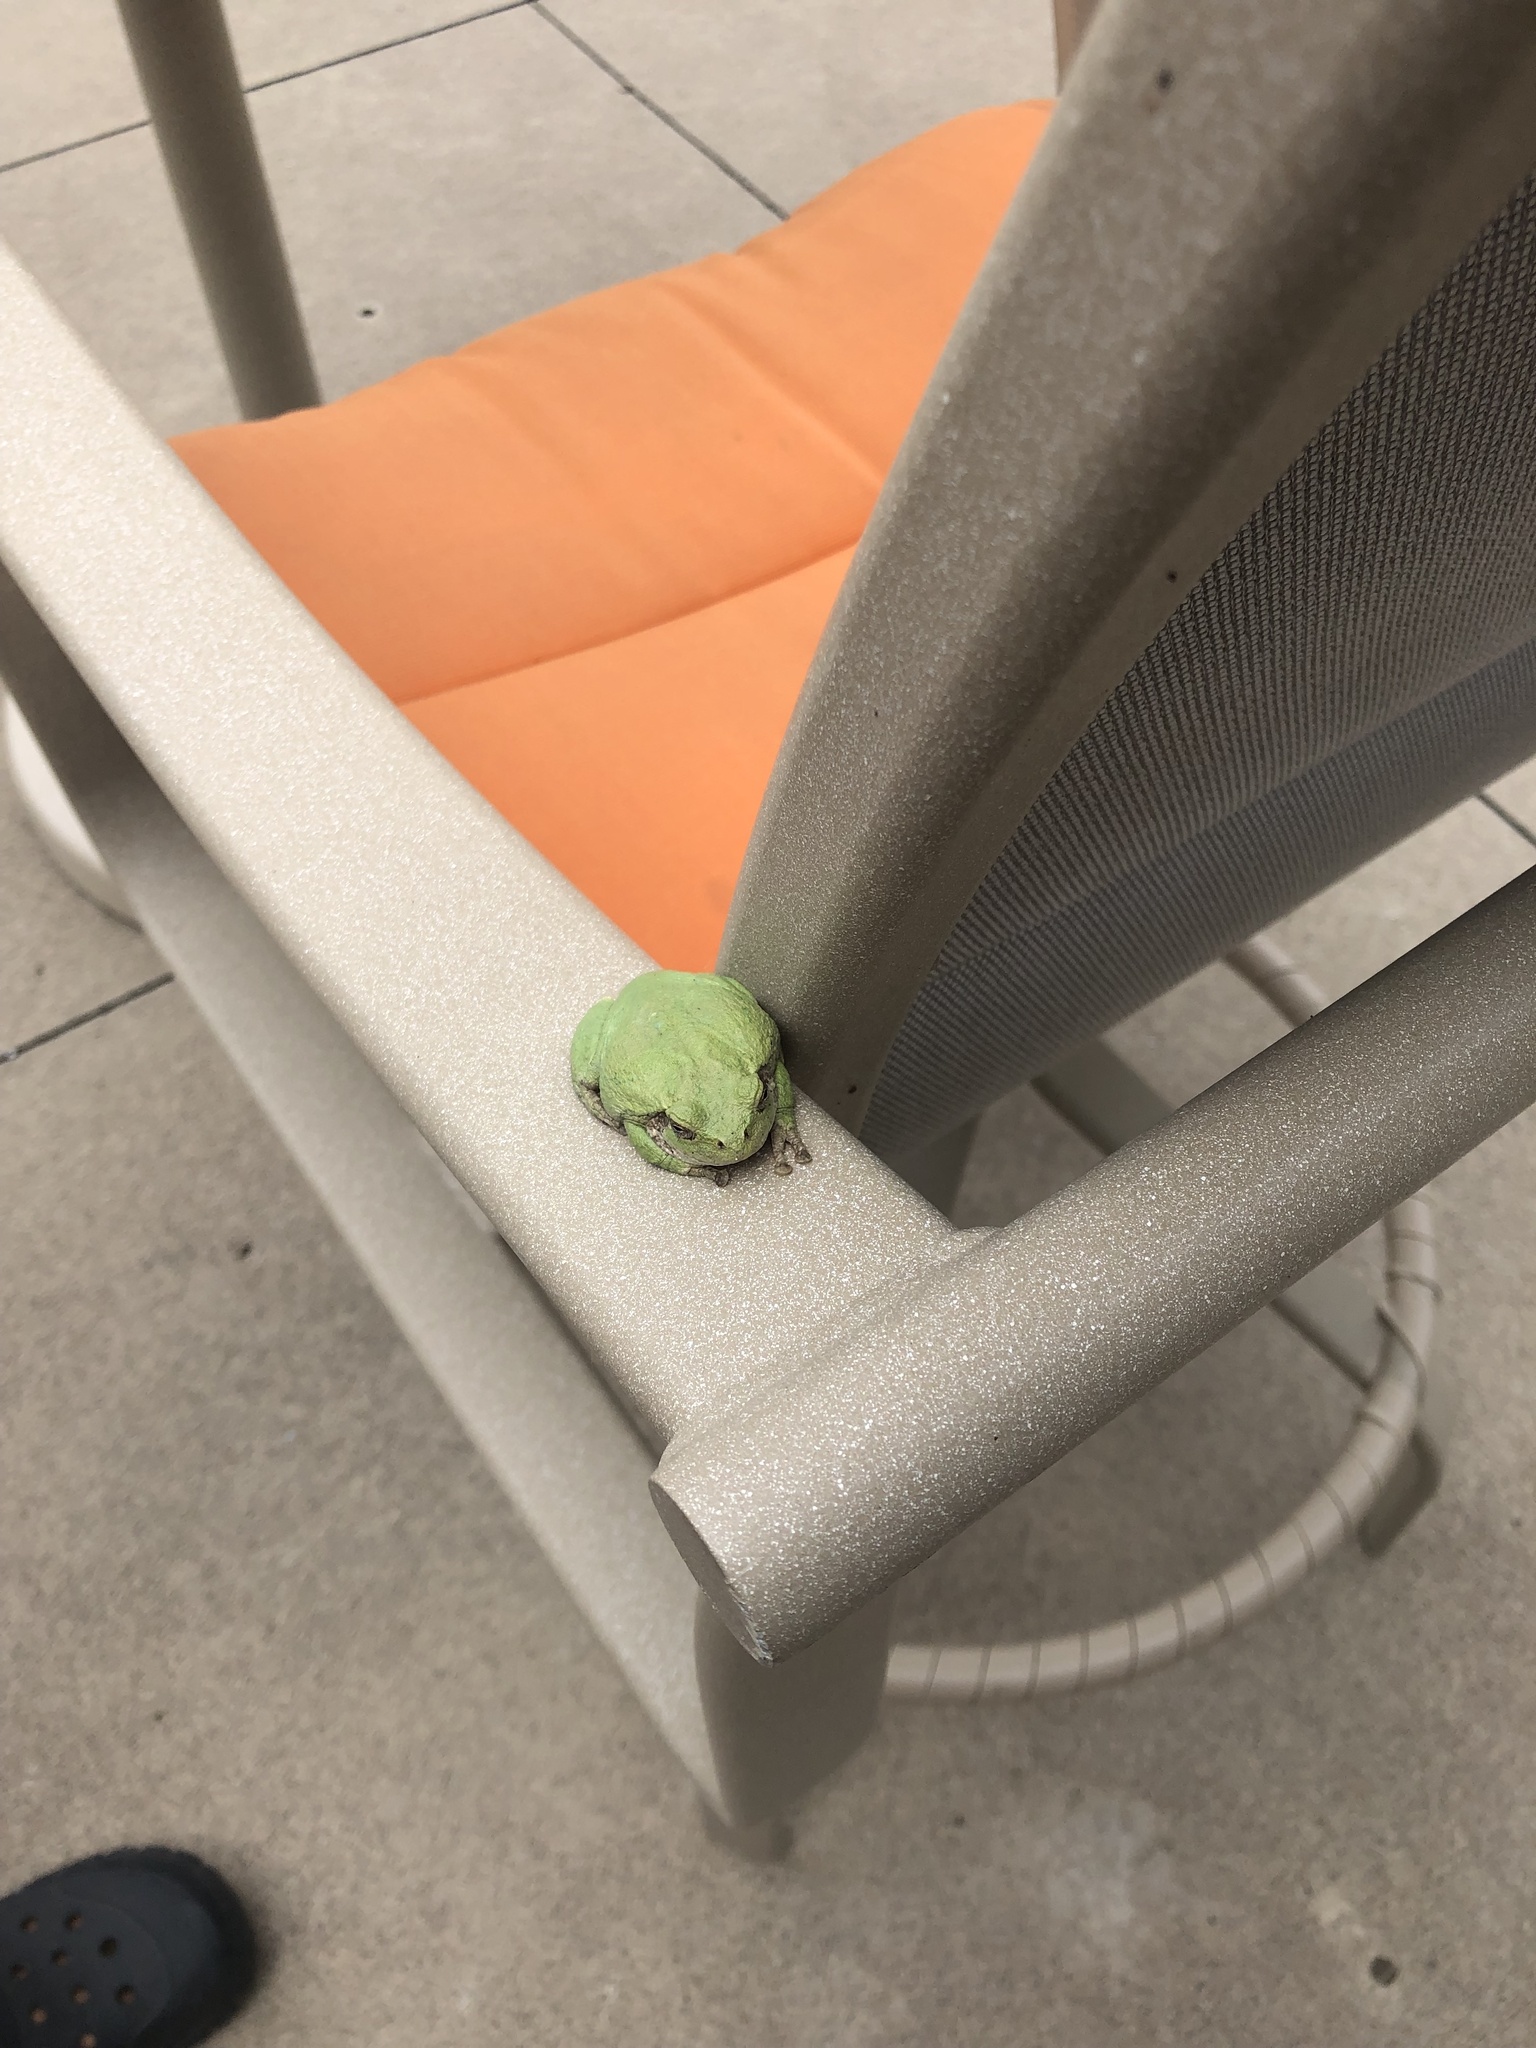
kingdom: Animalia
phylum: Chordata
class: Amphibia
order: Anura
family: Hylidae
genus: Hyla
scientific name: Hyla
